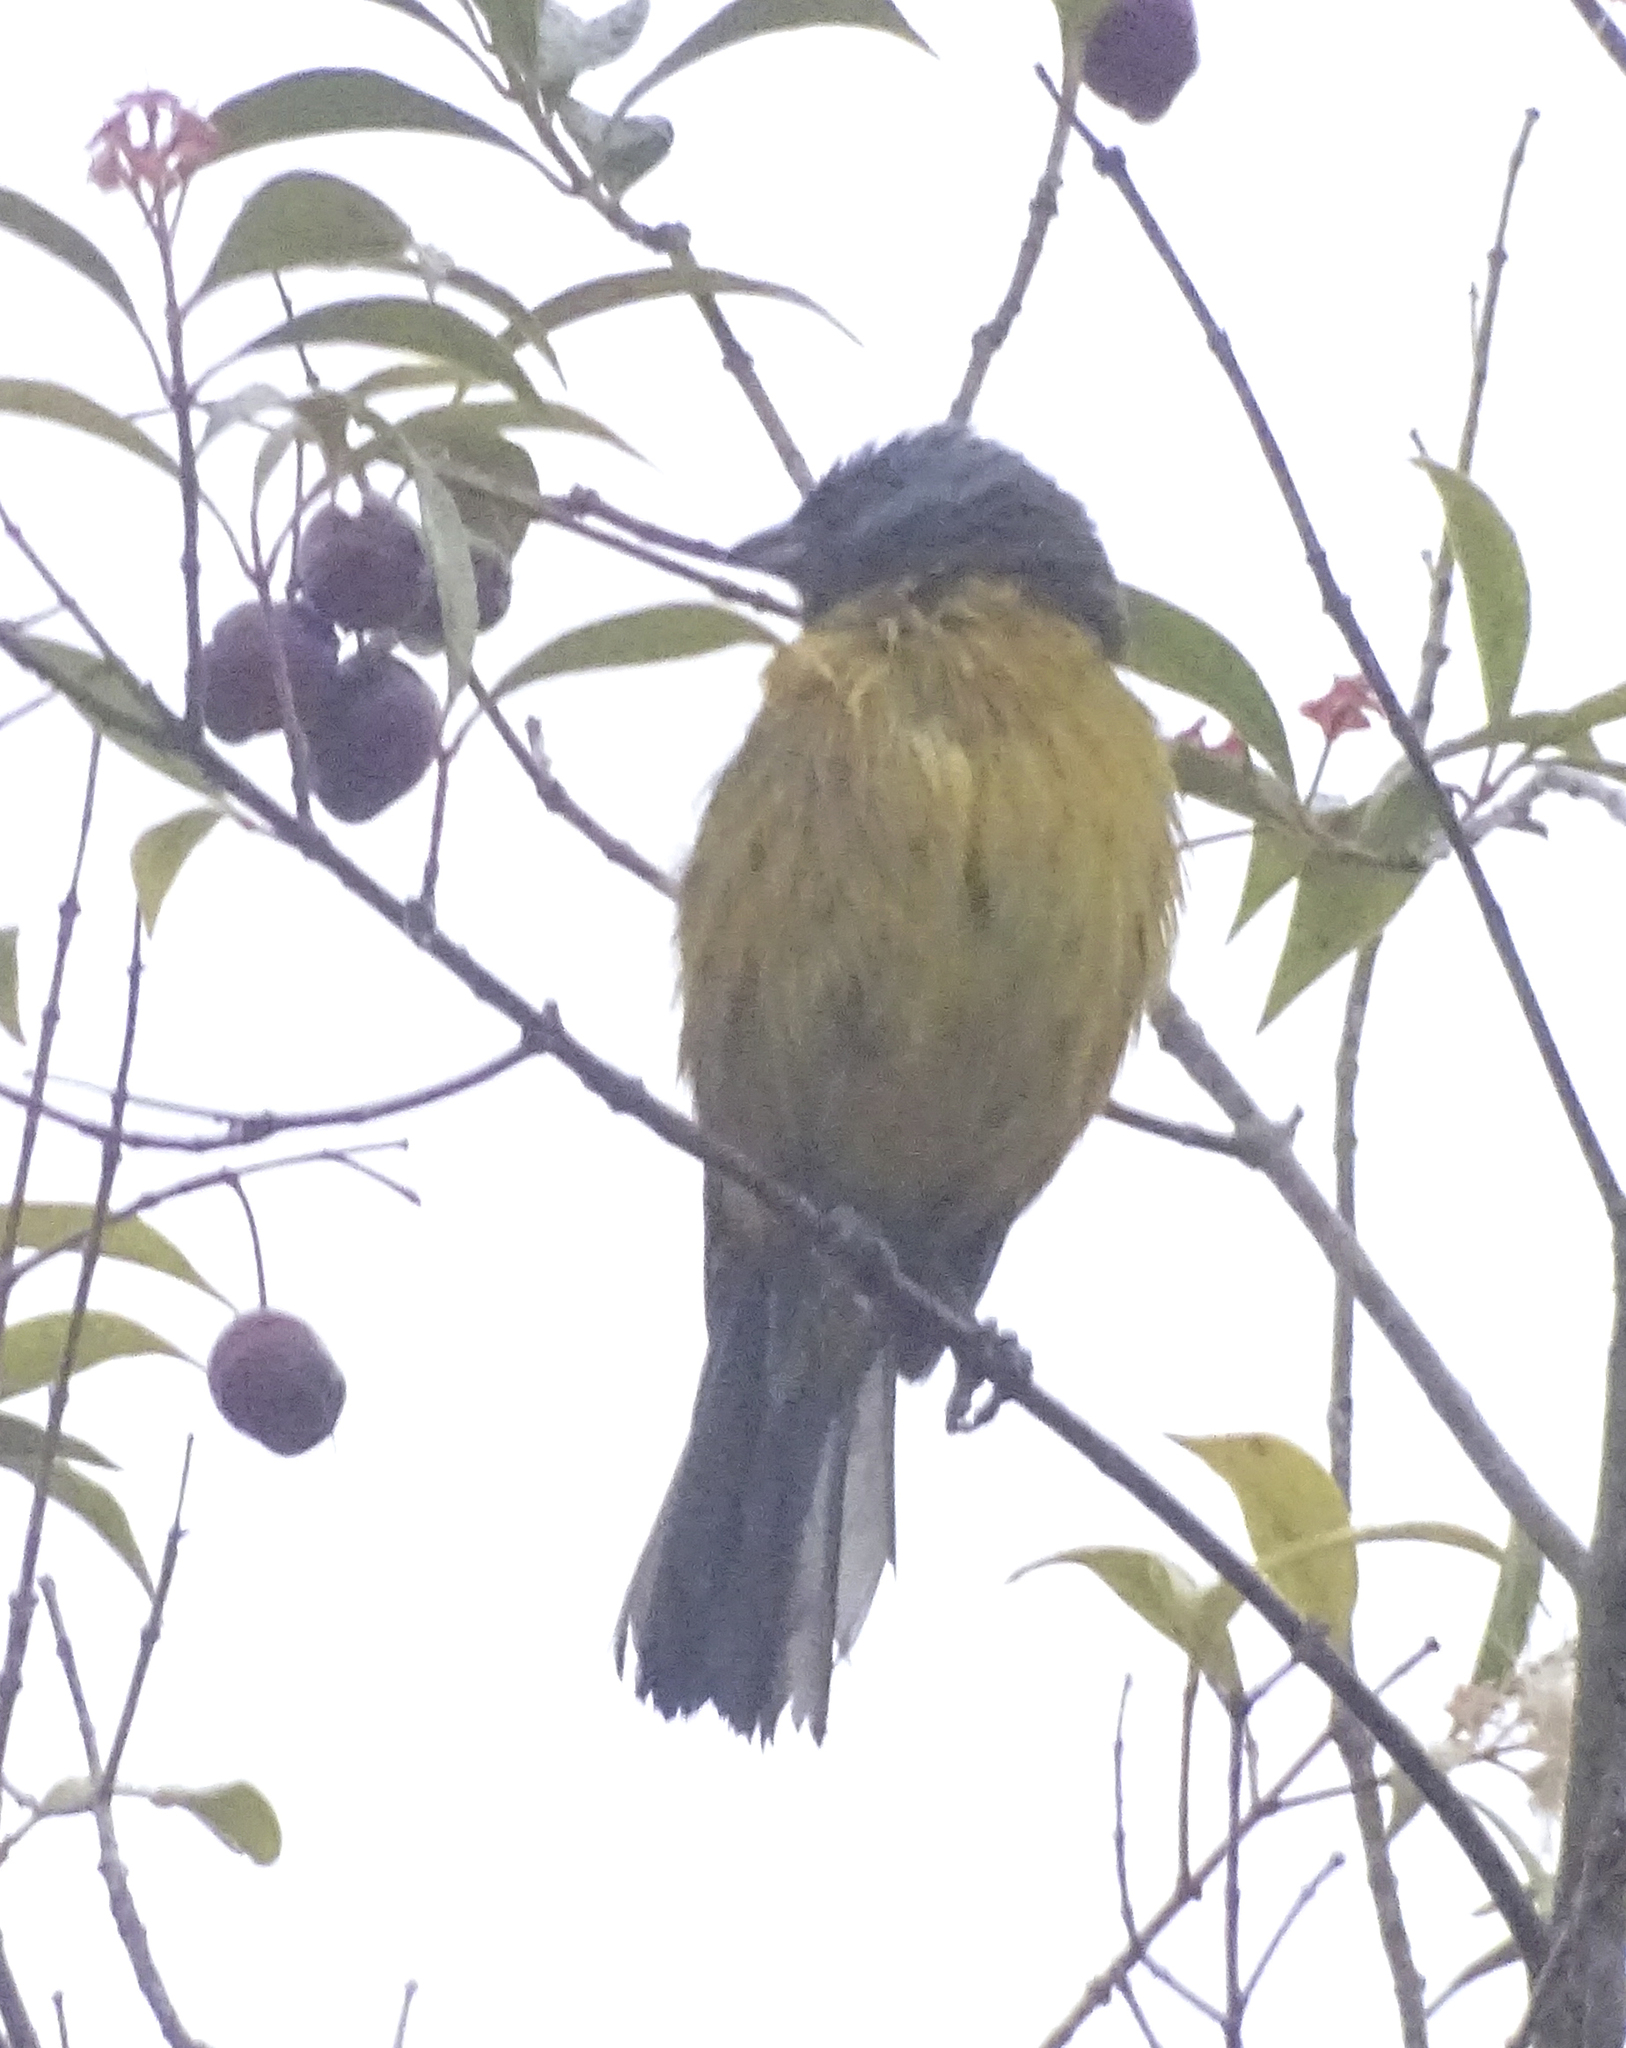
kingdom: Animalia
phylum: Chordata
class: Aves
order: Passeriformes
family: Thraupidae
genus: Rauenia
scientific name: Rauenia bonariensis
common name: Blue-and-yellow tanager
